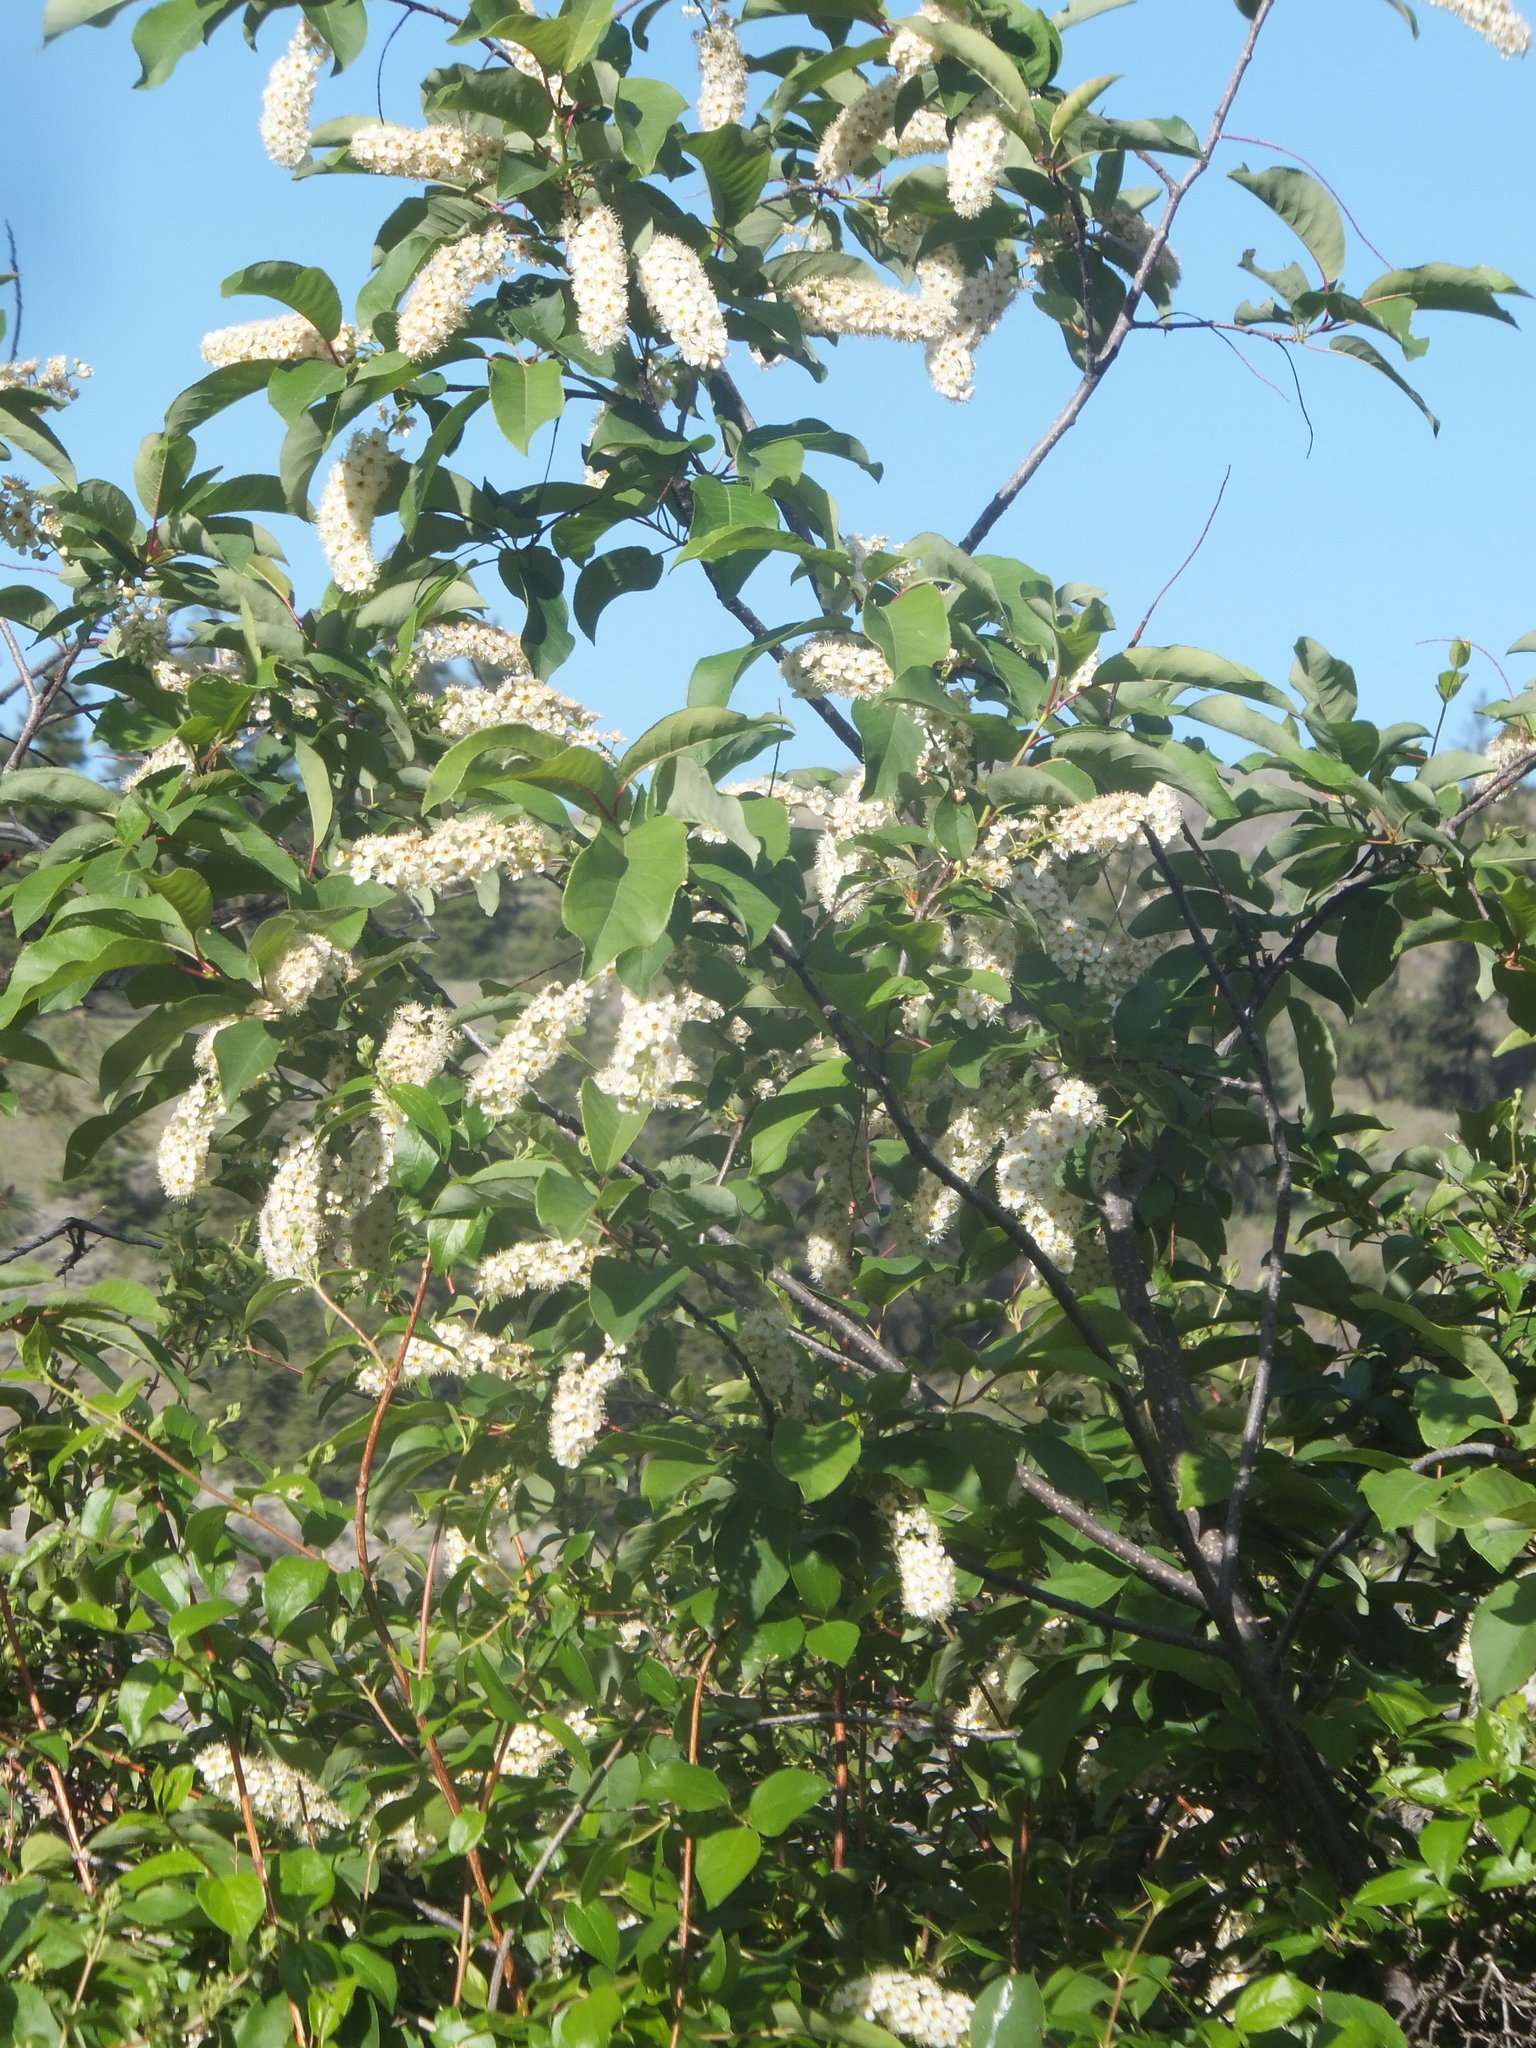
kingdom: Plantae
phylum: Tracheophyta
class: Magnoliopsida
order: Rosales
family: Rosaceae
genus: Prunus
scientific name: Prunus virginiana
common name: Chokecherry
